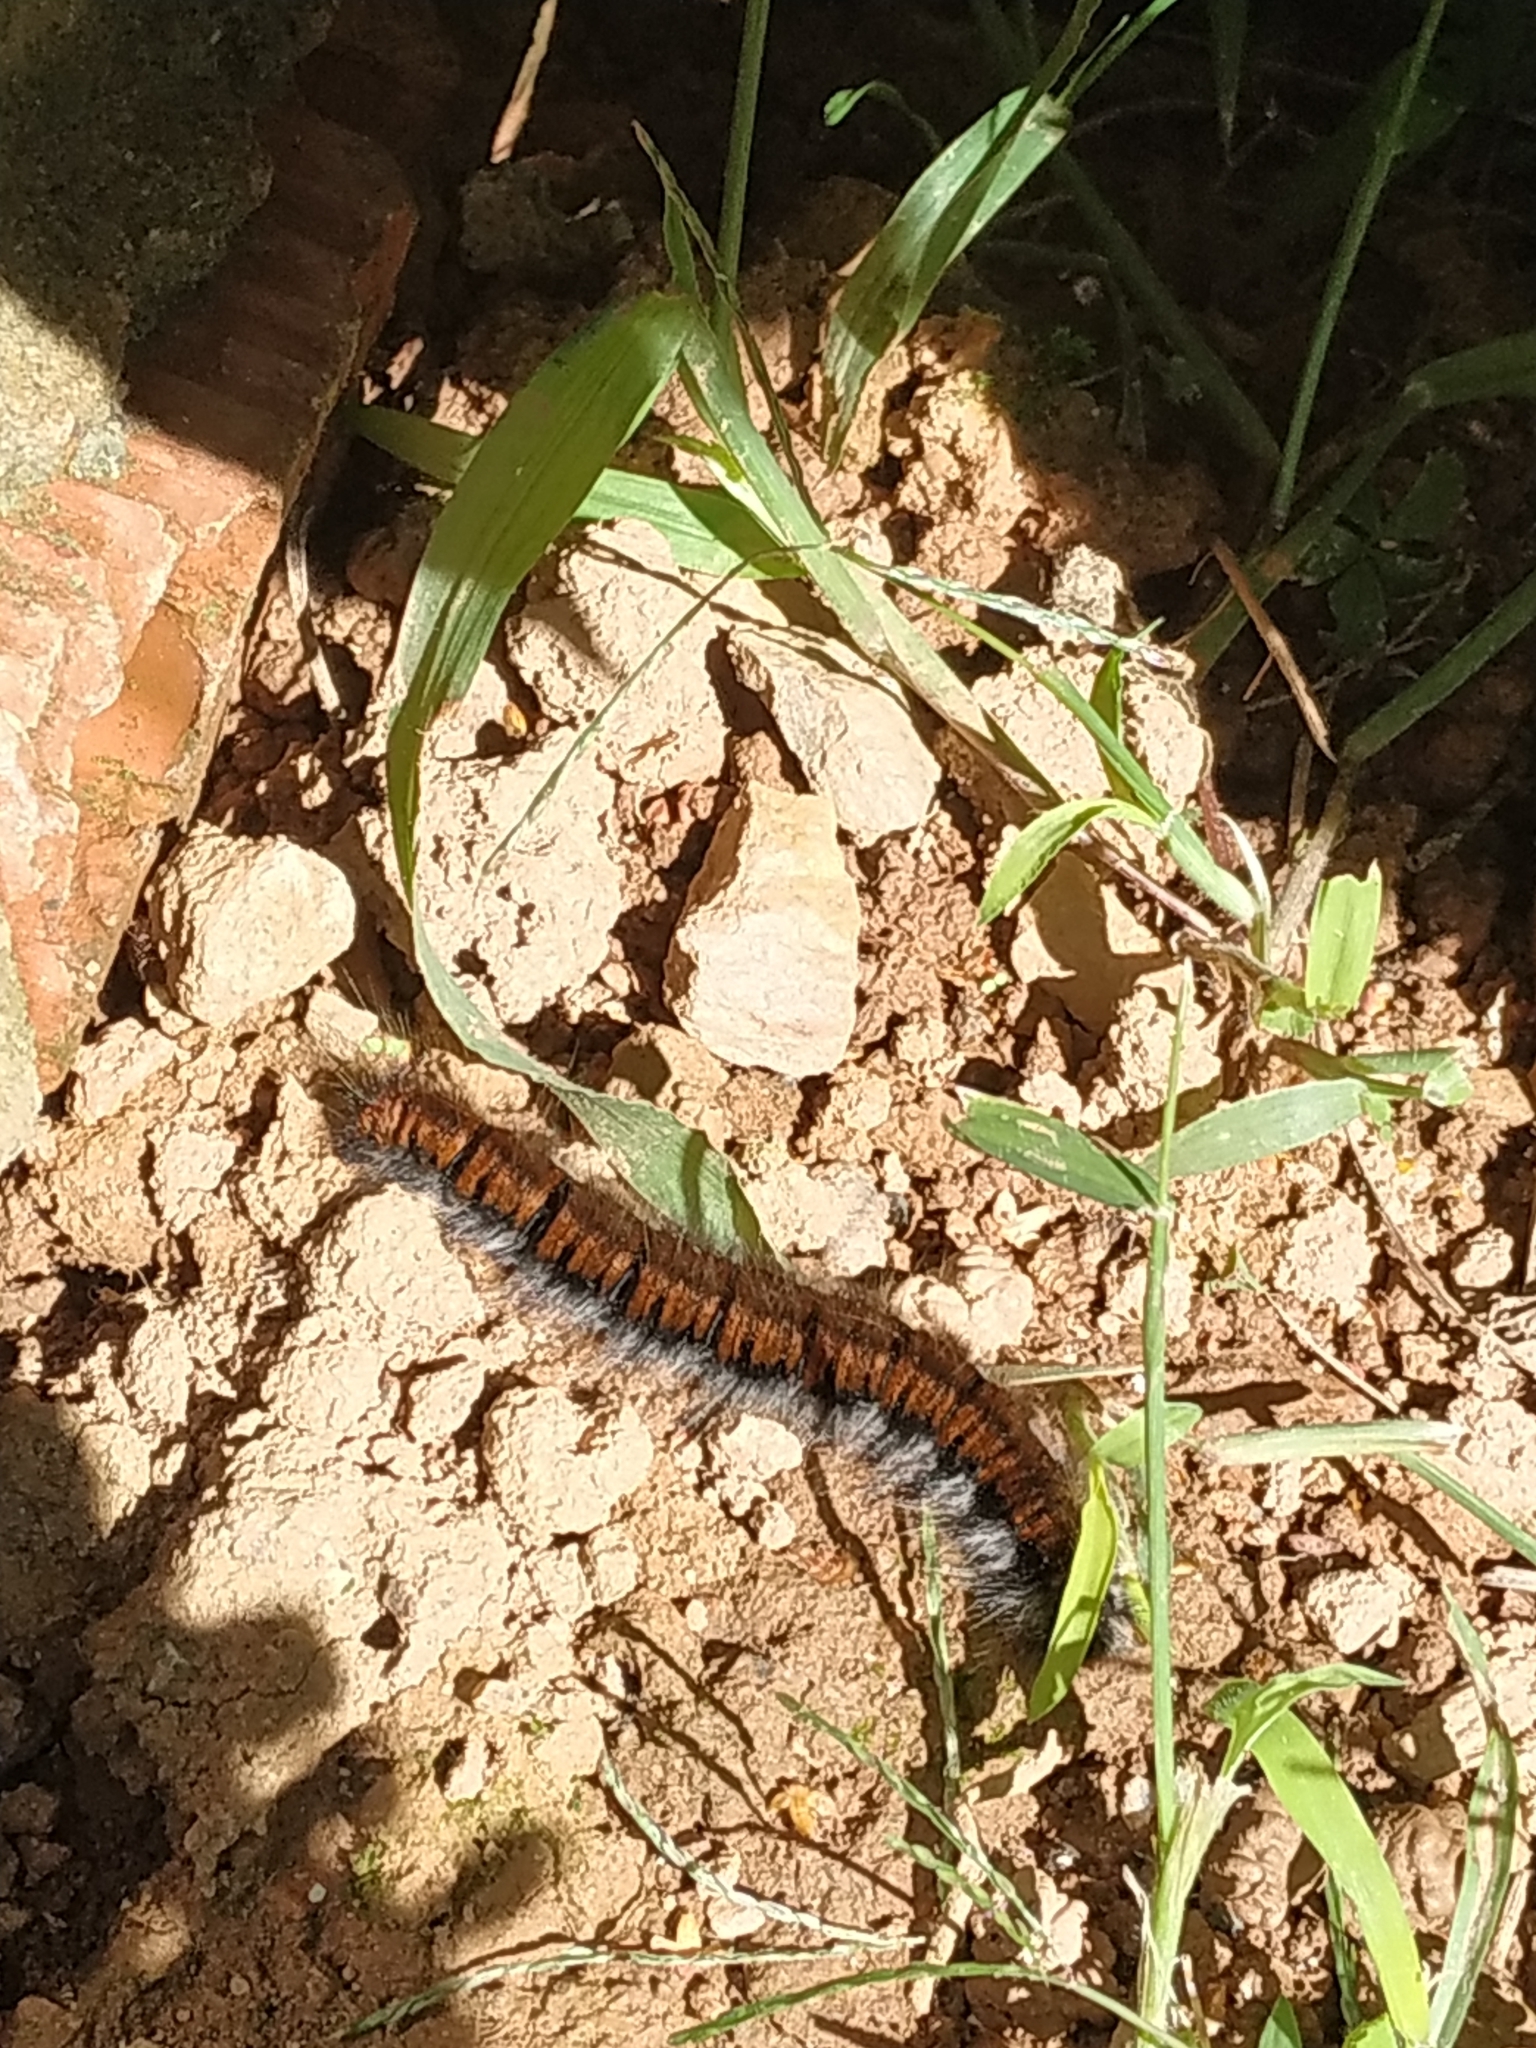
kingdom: Animalia
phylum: Arthropoda
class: Insecta
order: Lepidoptera
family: Lasiocampidae
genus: Macrothylacia
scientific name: Macrothylacia rubi
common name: Fox moth
